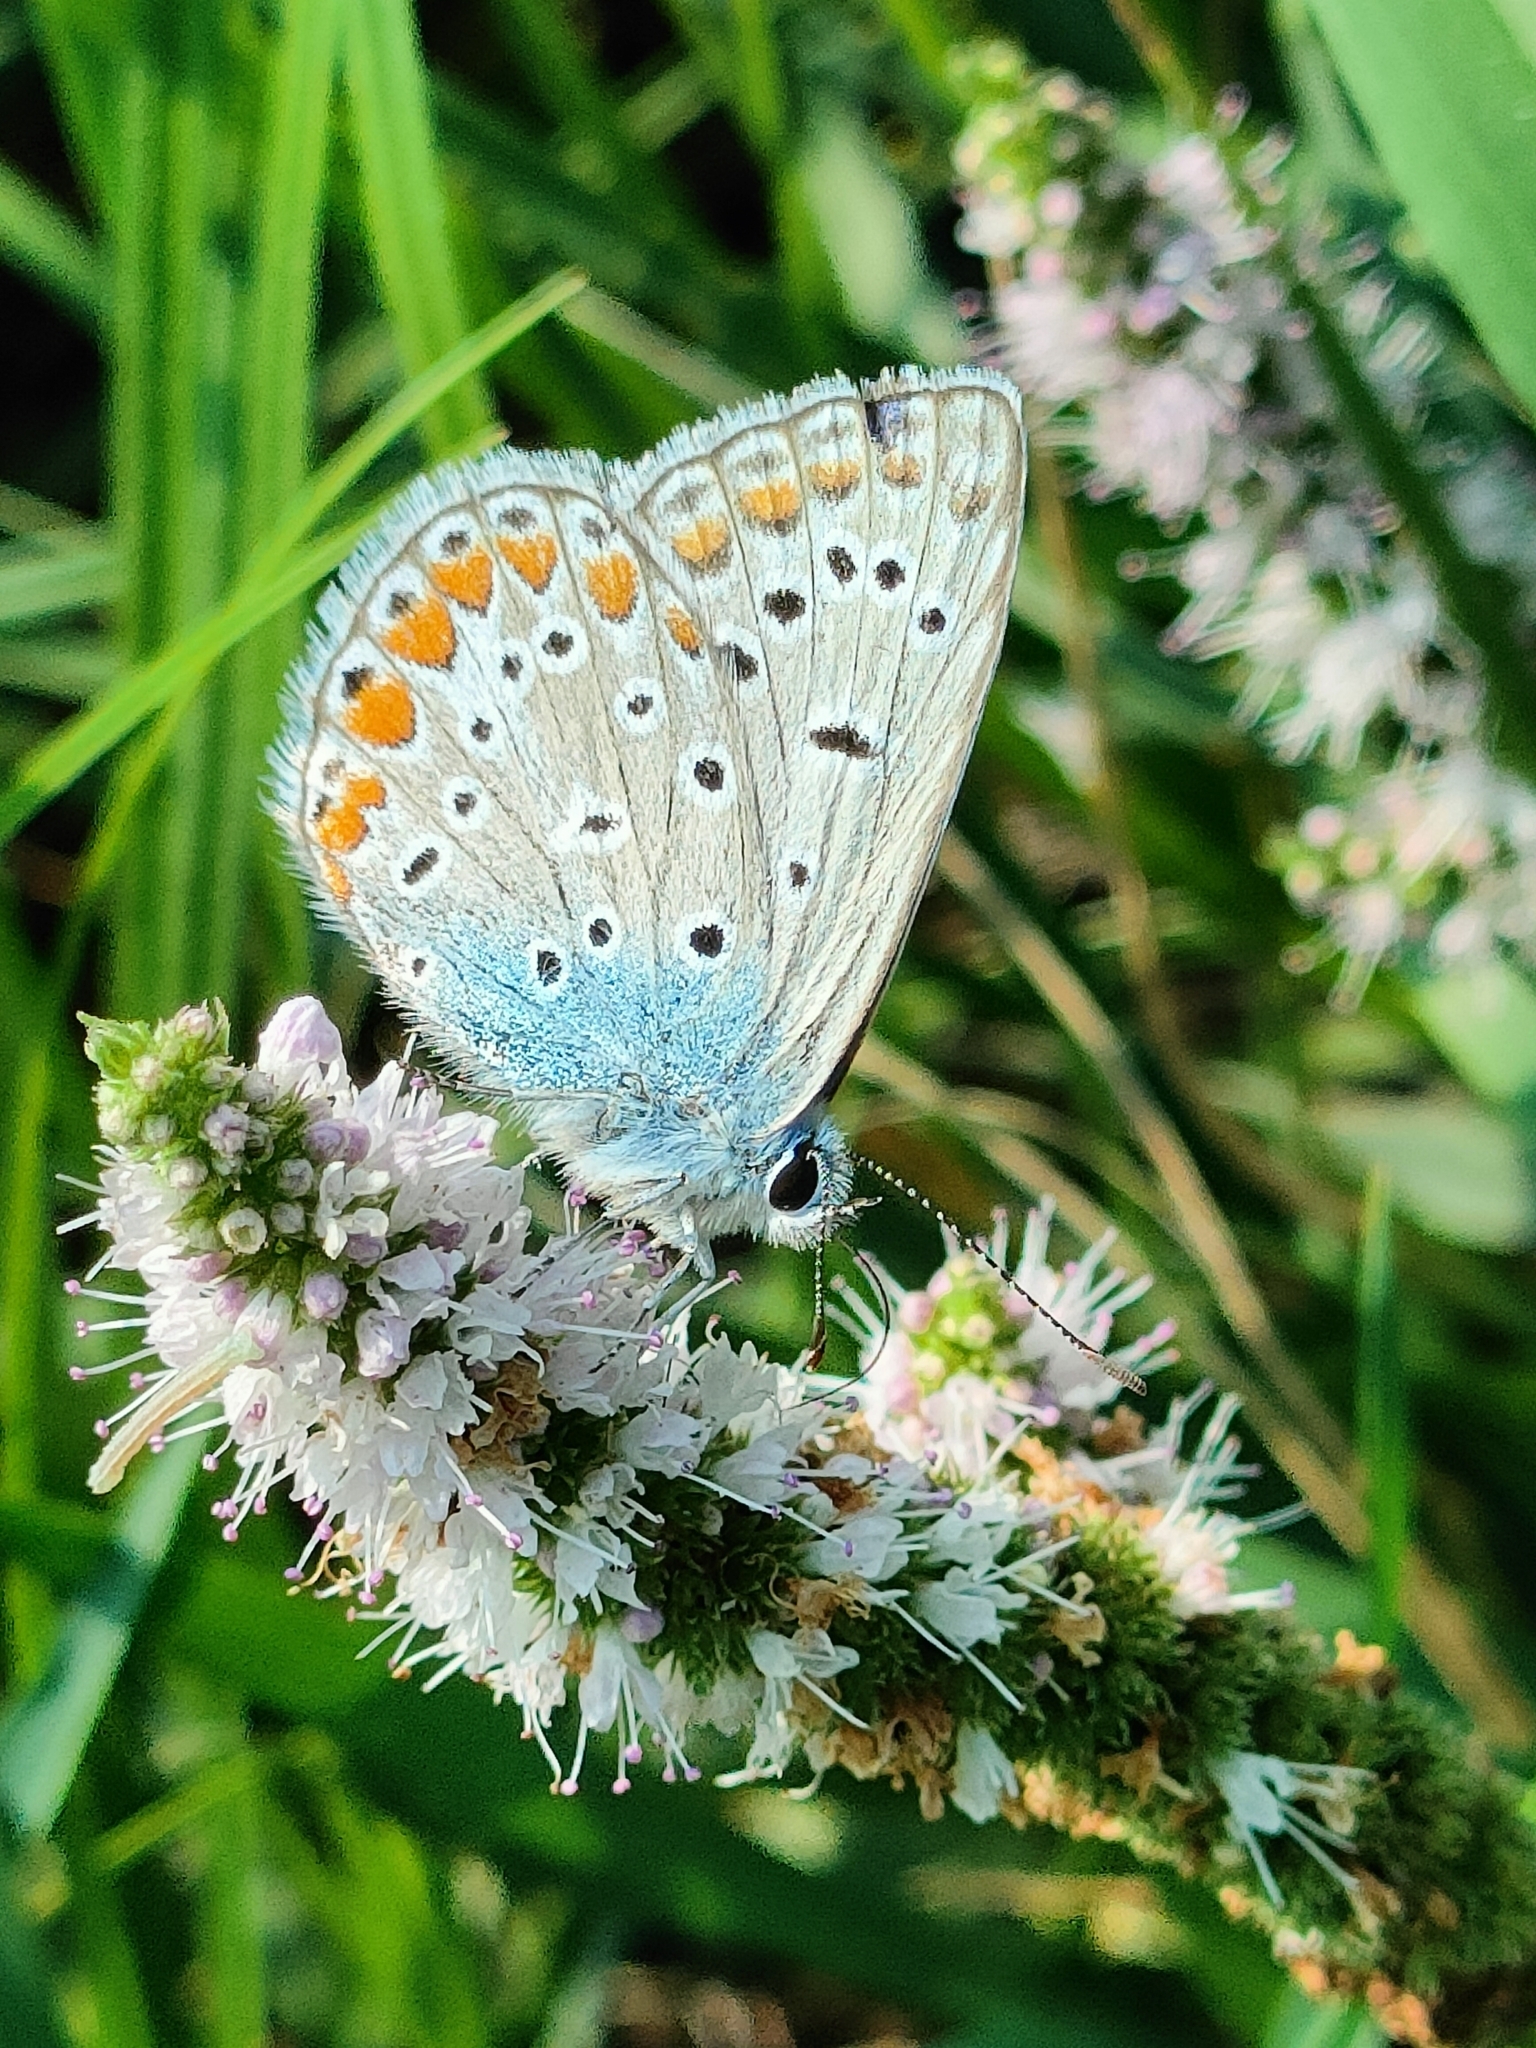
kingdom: Animalia
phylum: Arthropoda
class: Insecta
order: Lepidoptera
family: Lycaenidae
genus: Polyommatus
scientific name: Polyommatus icarus
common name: Common blue
